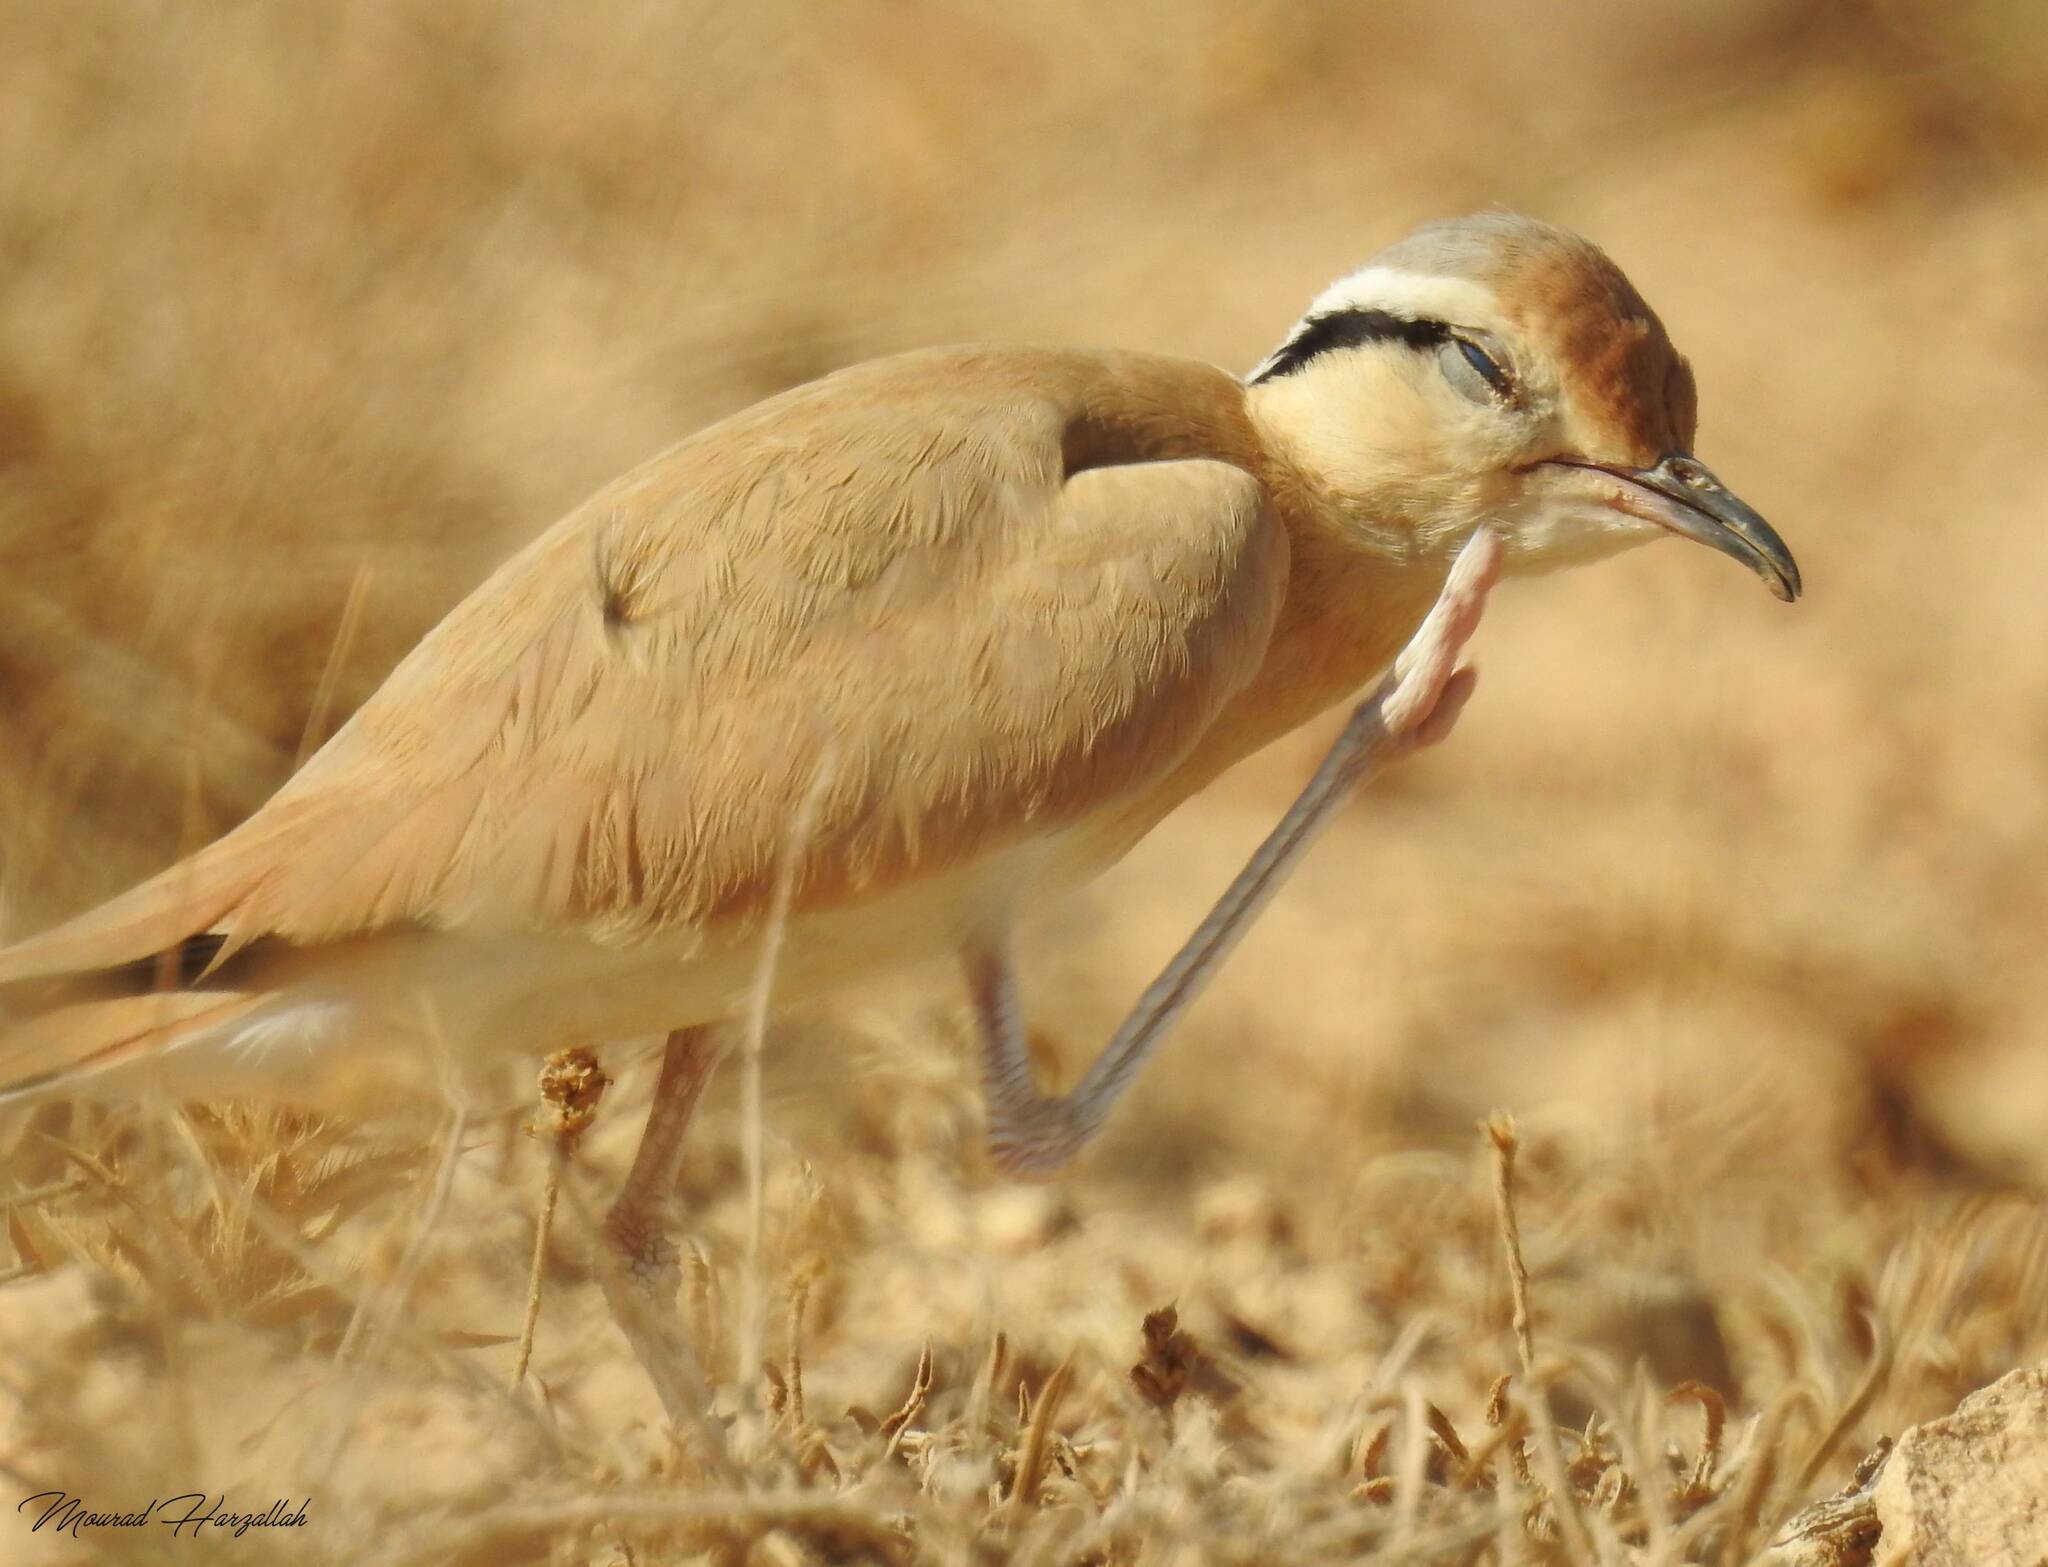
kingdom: Animalia
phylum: Chordata
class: Aves
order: Charadriiformes
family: Glareolidae
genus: Cursorius
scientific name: Cursorius cursor
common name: Cream-colored courser
